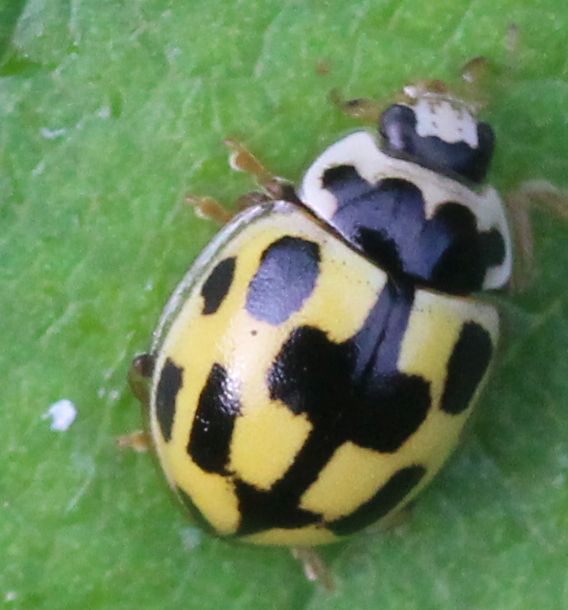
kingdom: Animalia
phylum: Arthropoda
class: Insecta
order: Coleoptera
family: Coccinellidae
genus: Propylaea
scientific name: Propylaea quatuordecimpunctata
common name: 14-spotted ladybird beetle
